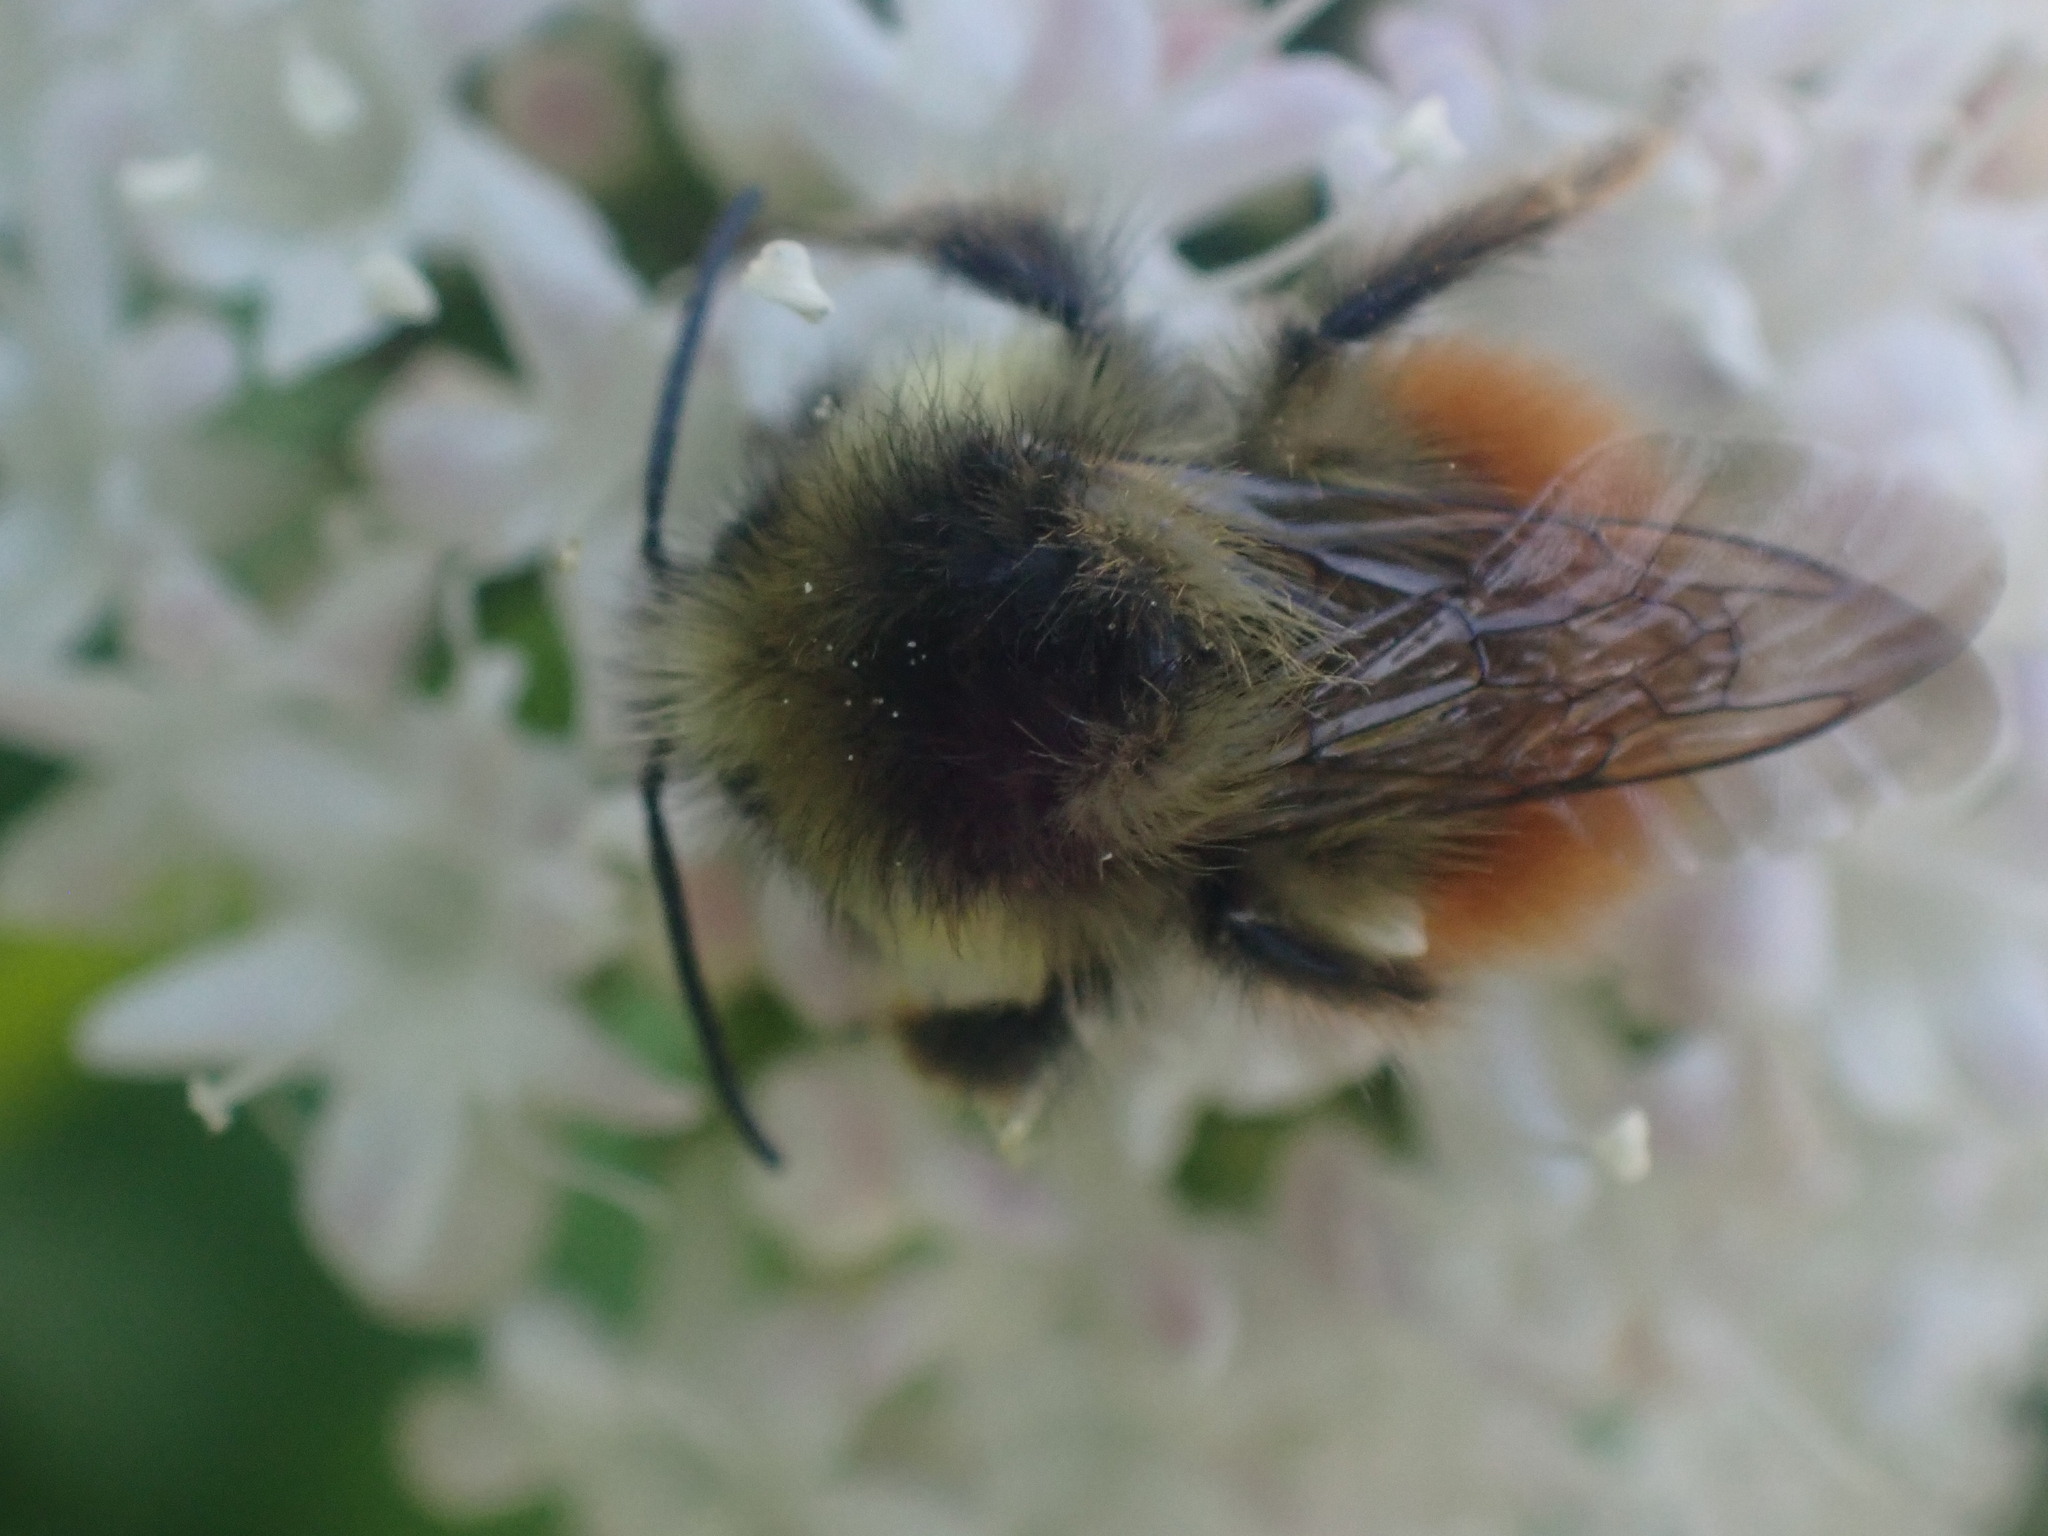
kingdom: Animalia
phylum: Arthropoda
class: Insecta
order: Hymenoptera
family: Apidae
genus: Bombus
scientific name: Bombus melanopygus
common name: Black tail bumble bee
